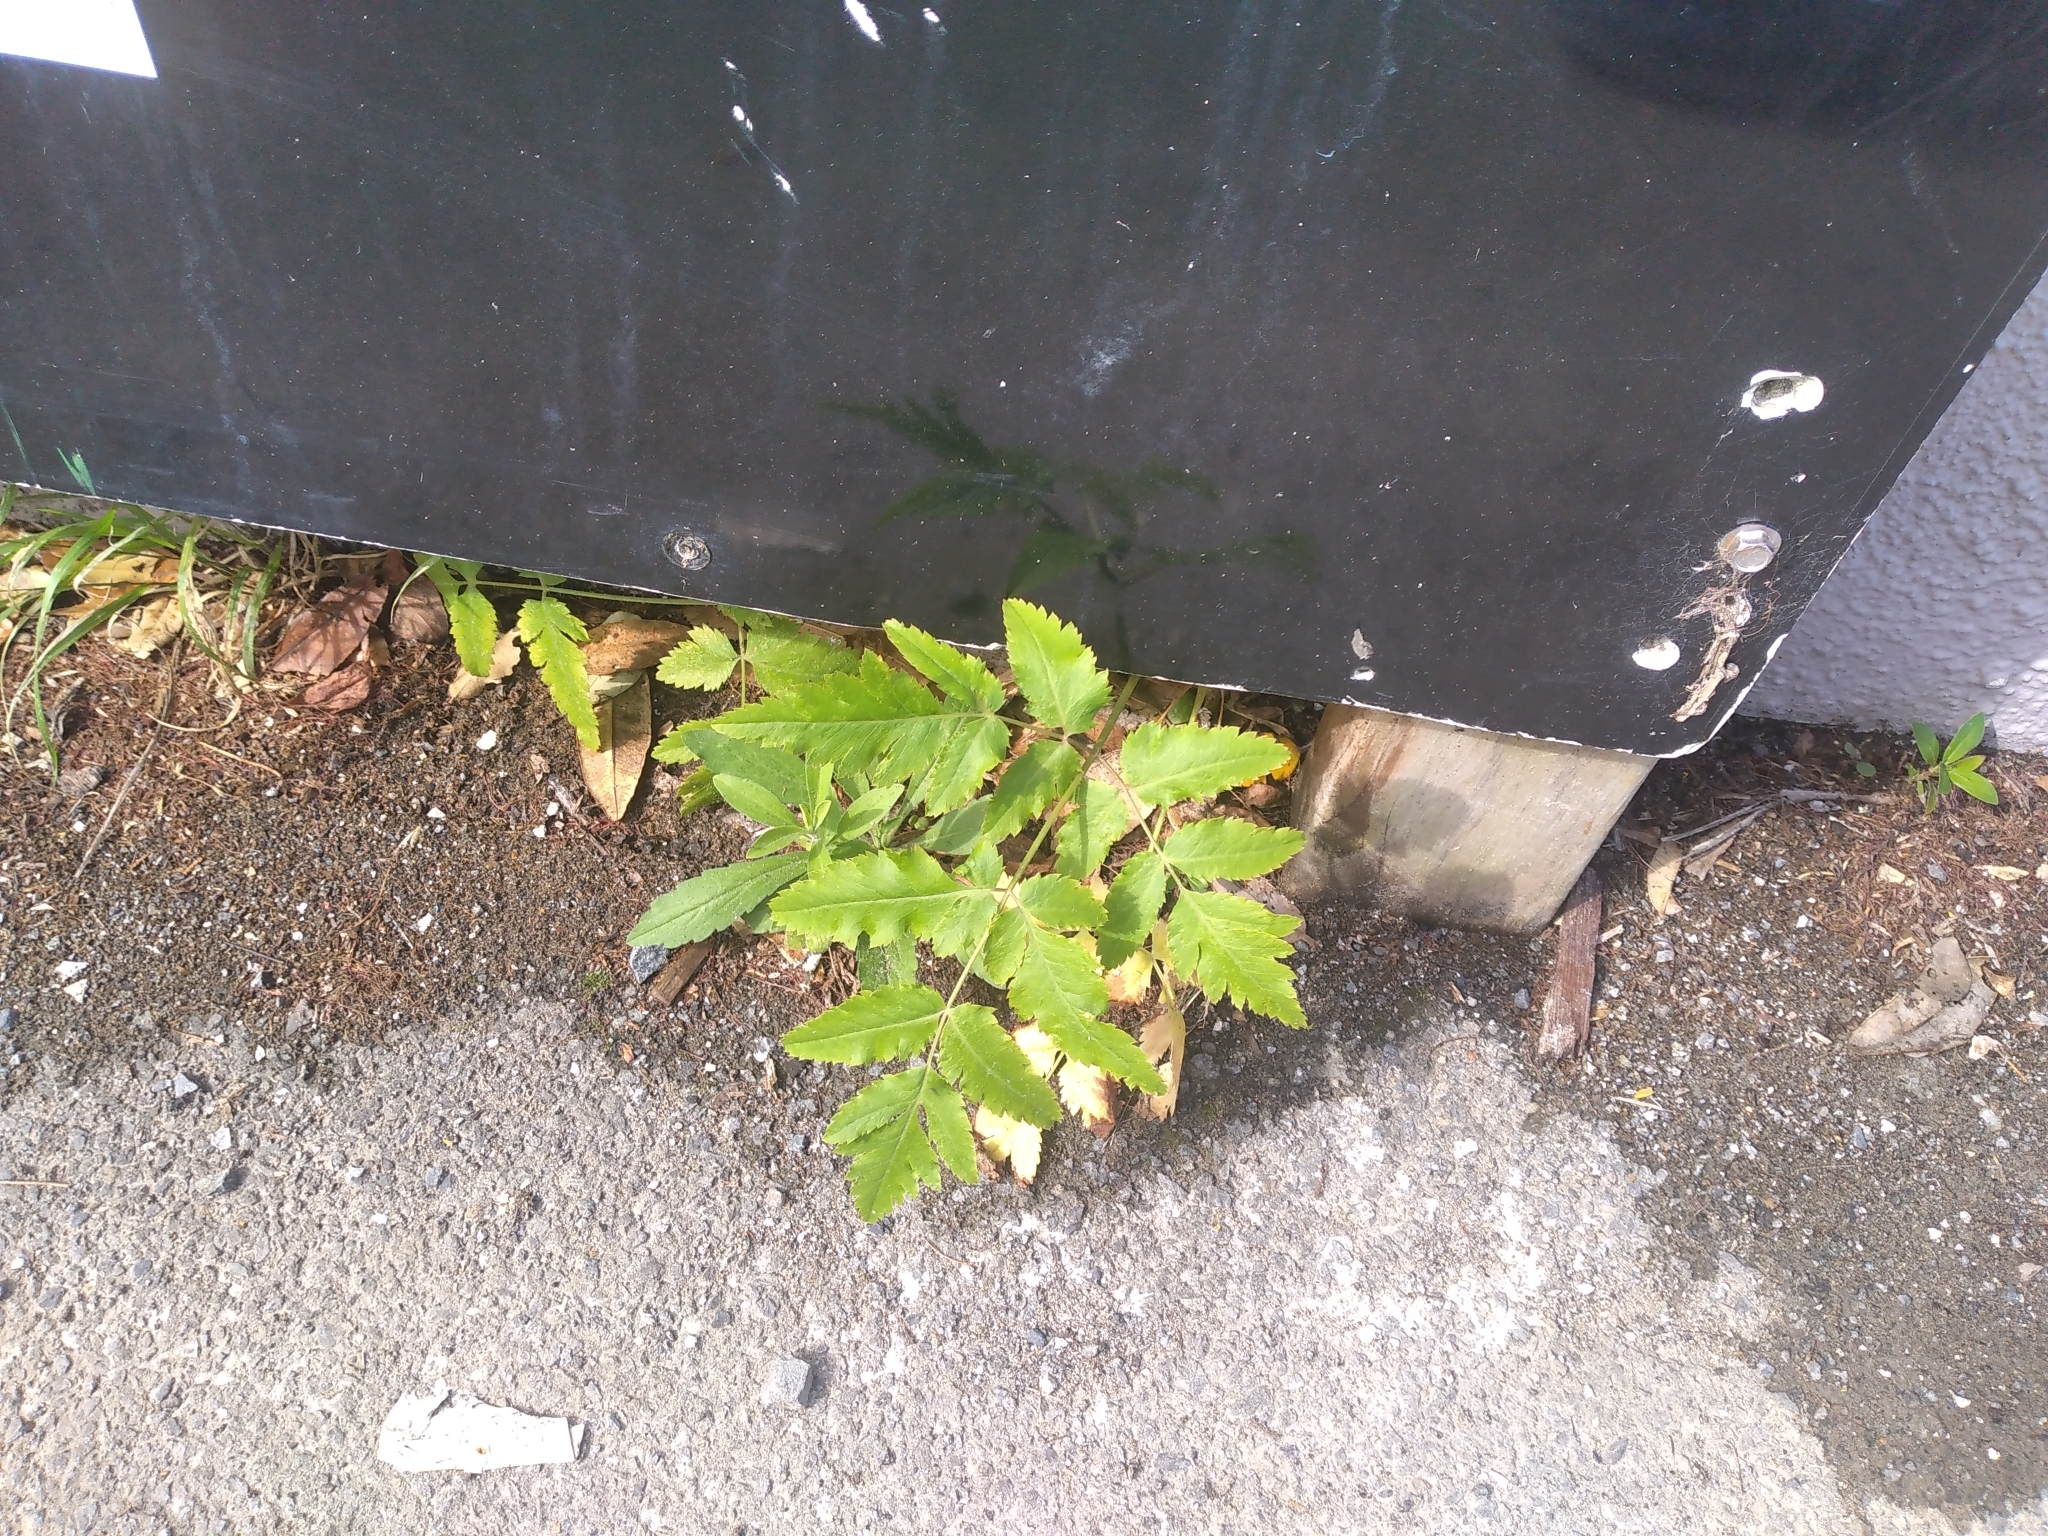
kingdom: Plantae
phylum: Tracheophyta
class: Magnoliopsida
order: Apiales
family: Apiaceae
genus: Daucus
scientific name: Daucus decipiens
